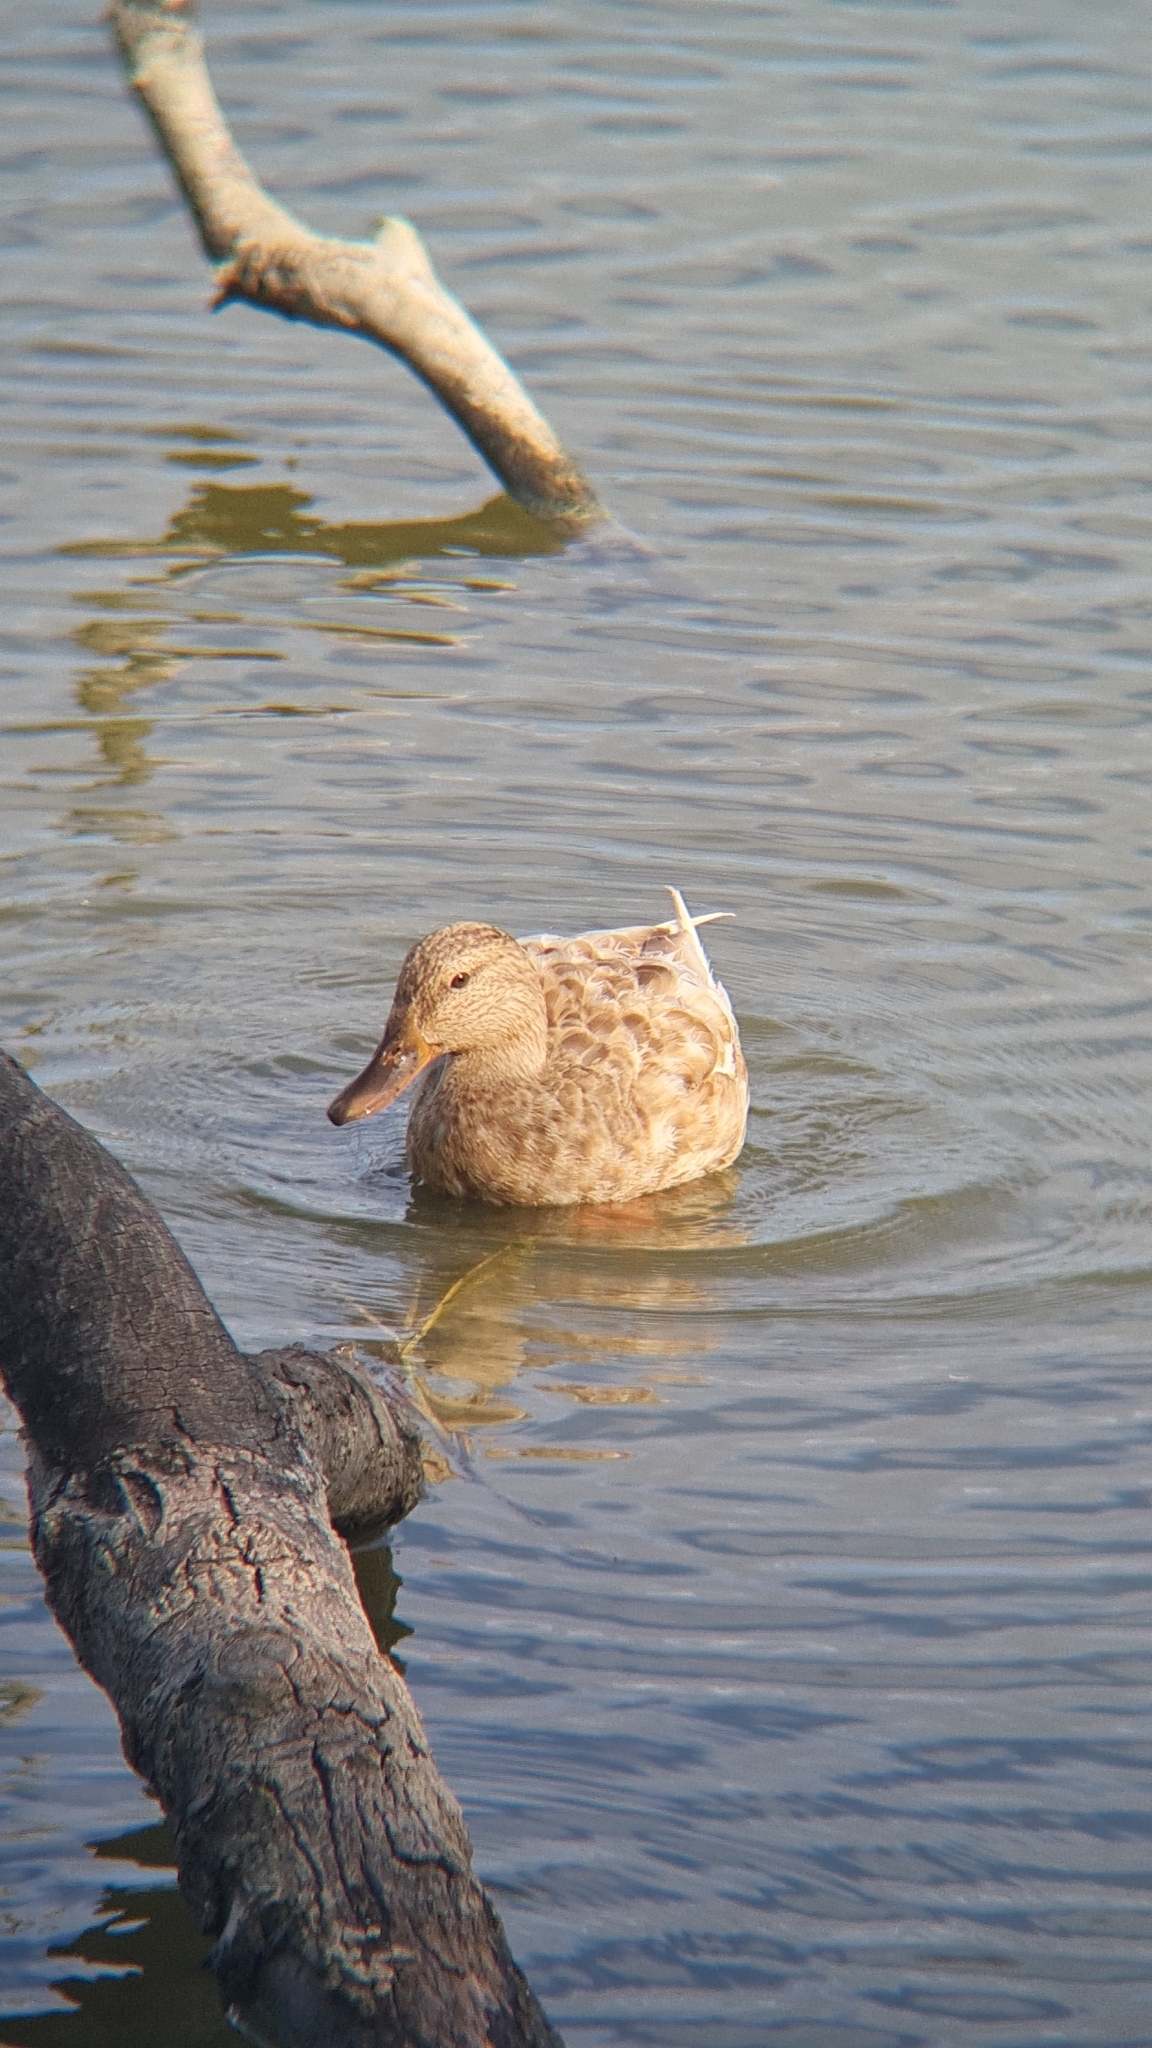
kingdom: Animalia
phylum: Chordata
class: Aves
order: Anseriformes
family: Anatidae
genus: Anas
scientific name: Anas platyrhynchos
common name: Mallard
